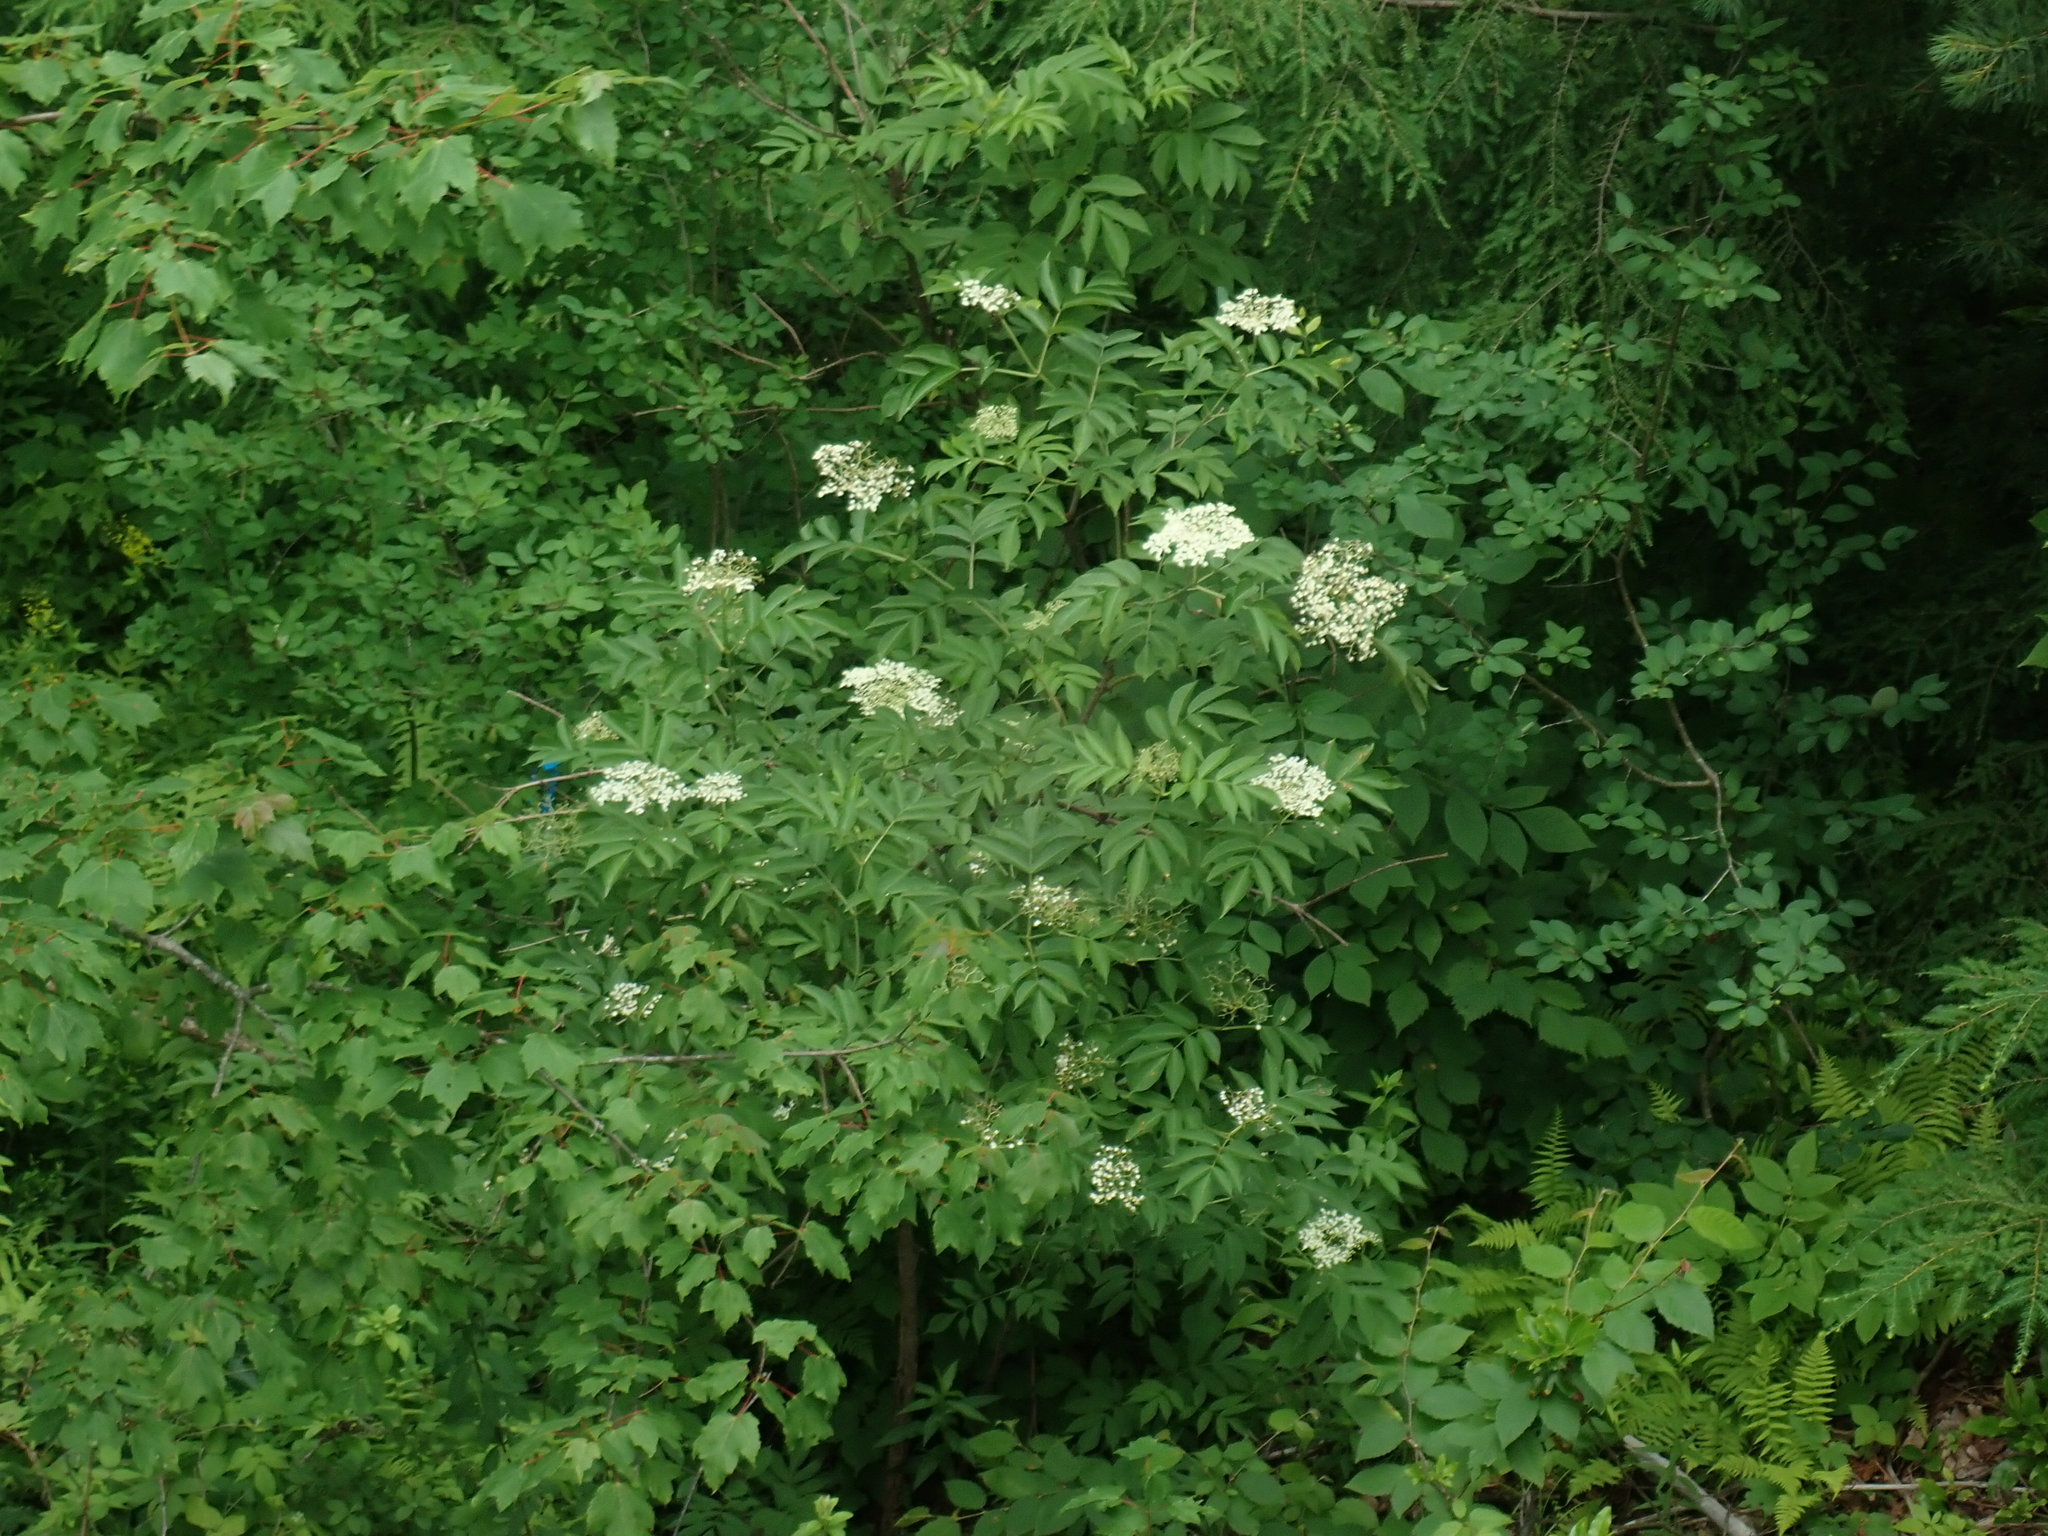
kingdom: Plantae
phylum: Tracheophyta
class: Magnoliopsida
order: Dipsacales
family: Viburnaceae
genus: Sambucus
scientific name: Sambucus canadensis
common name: American elder
